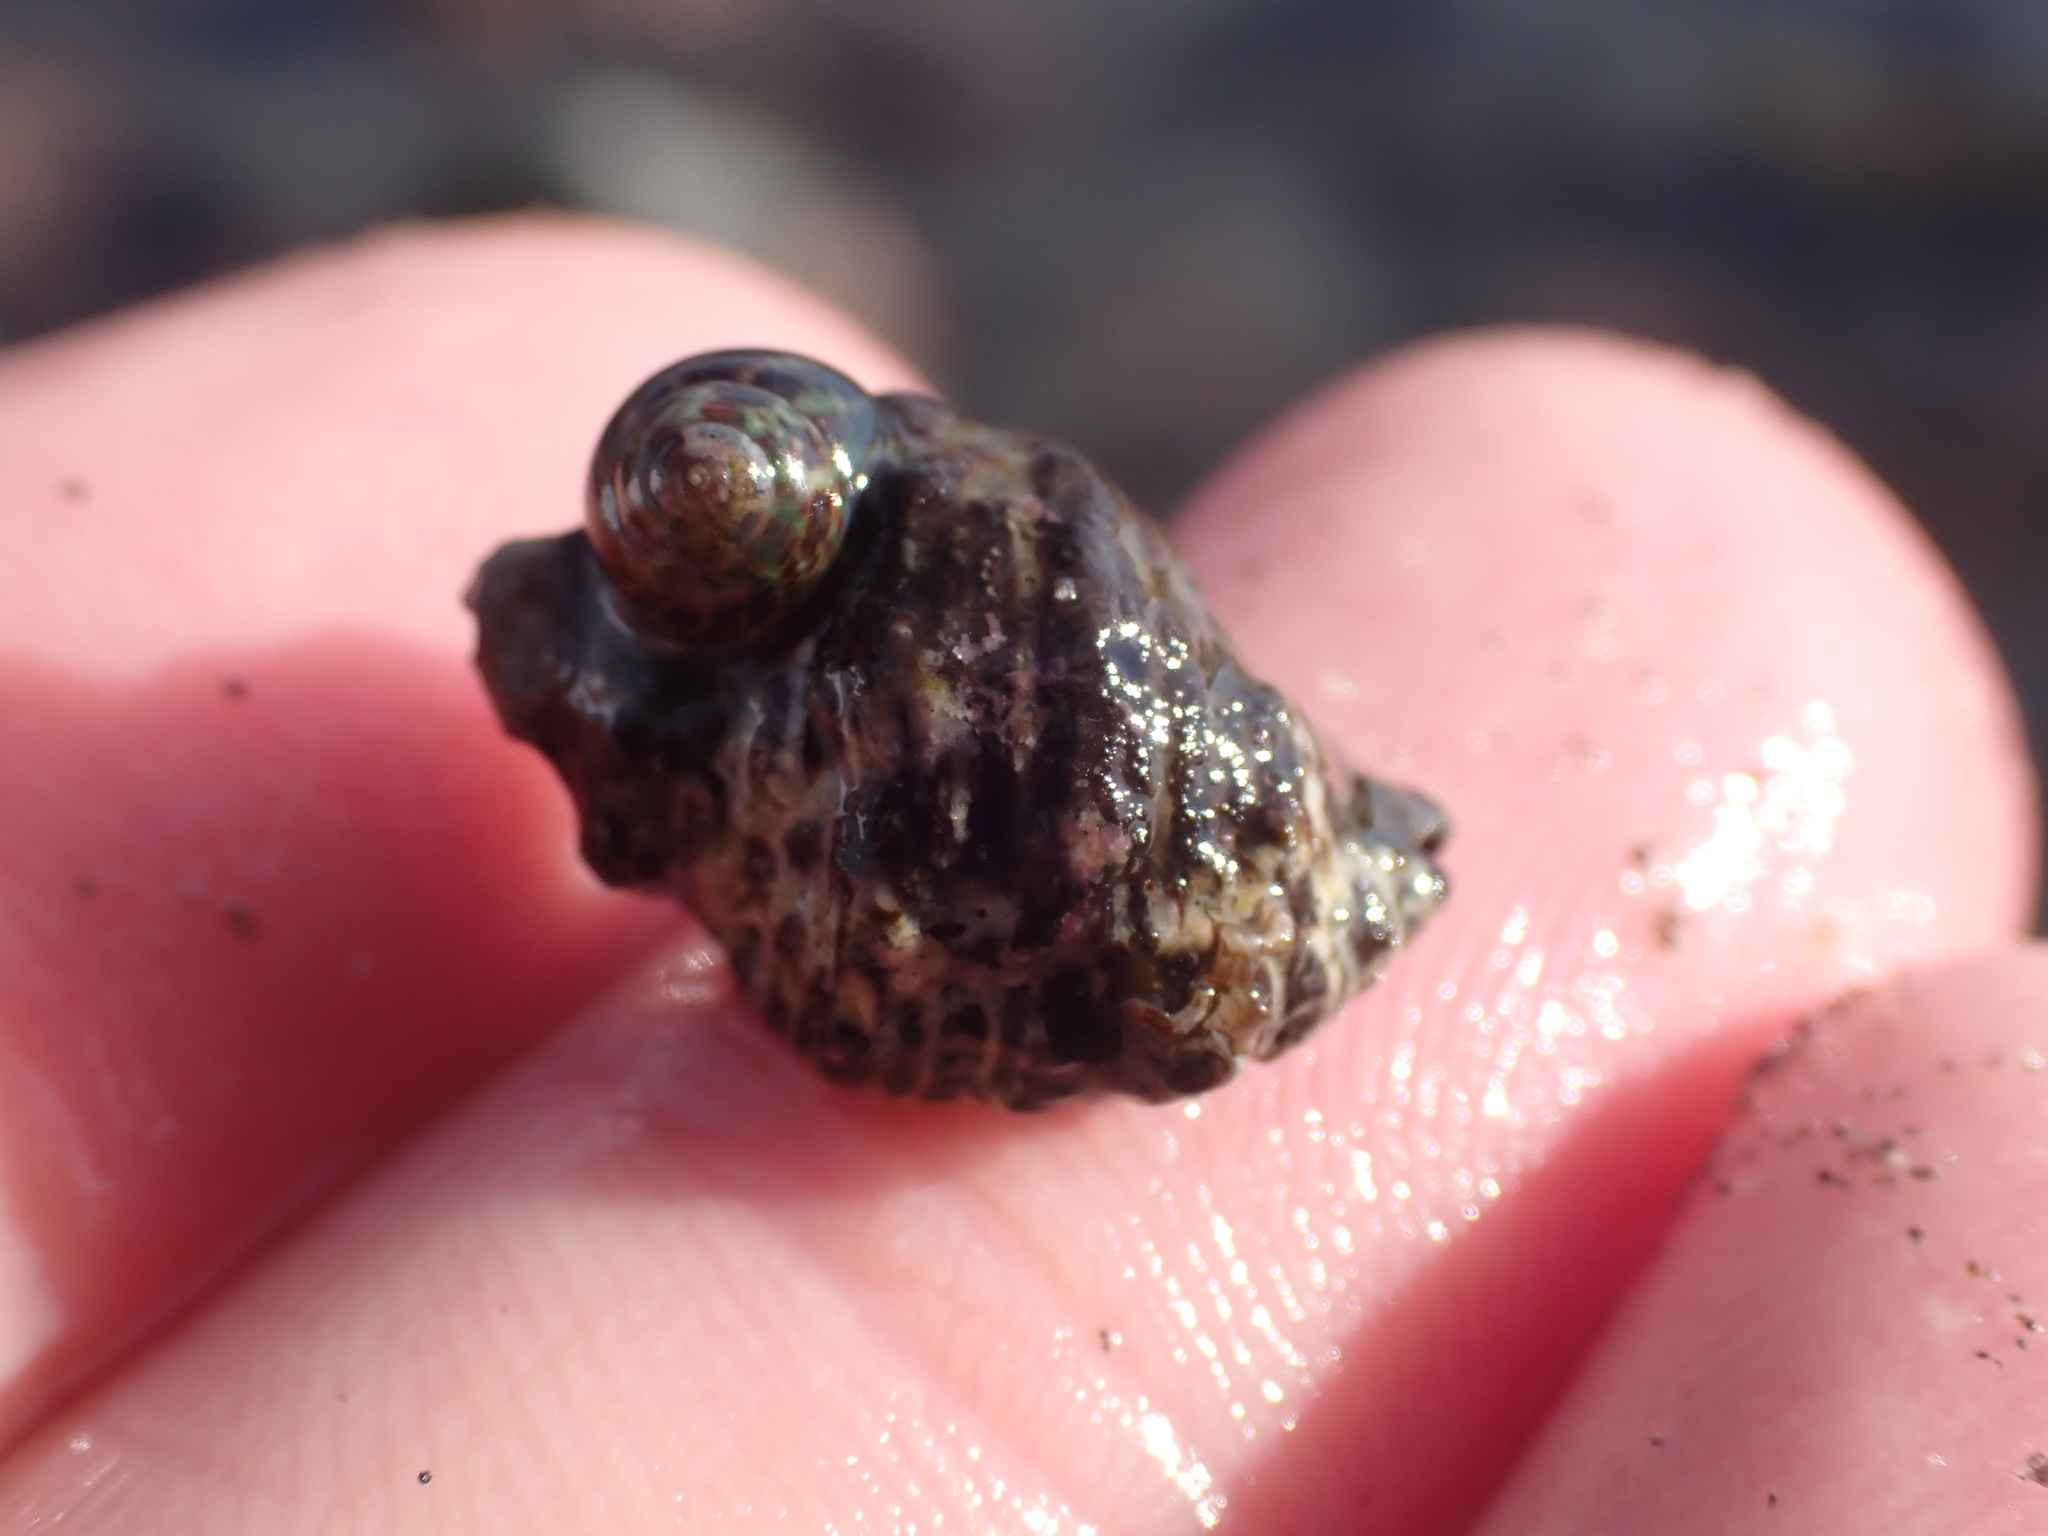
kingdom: Animalia
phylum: Mollusca
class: Gastropoda
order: Neogastropoda
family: Muricidae
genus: Haustrum
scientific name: Haustrum scobina
